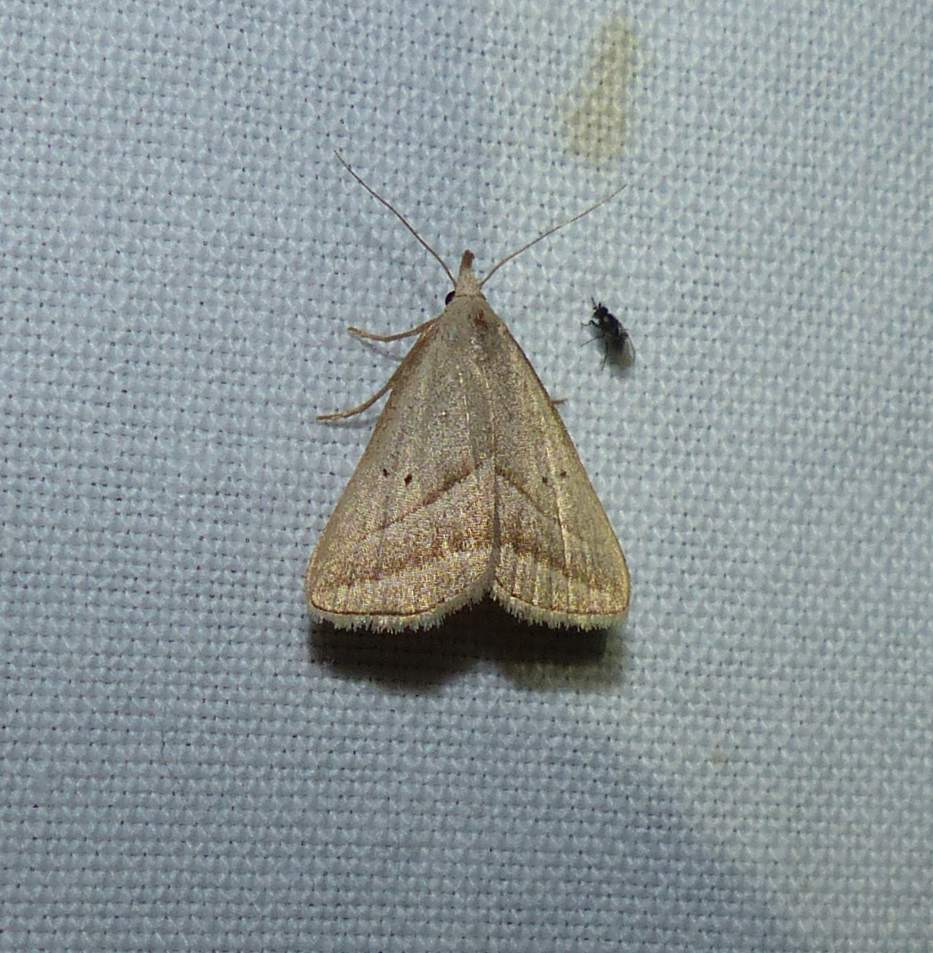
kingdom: Animalia
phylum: Arthropoda
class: Insecta
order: Lepidoptera
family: Erebidae
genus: Macrochilo
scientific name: Macrochilo absorptalis
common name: Slant-lined owlet
